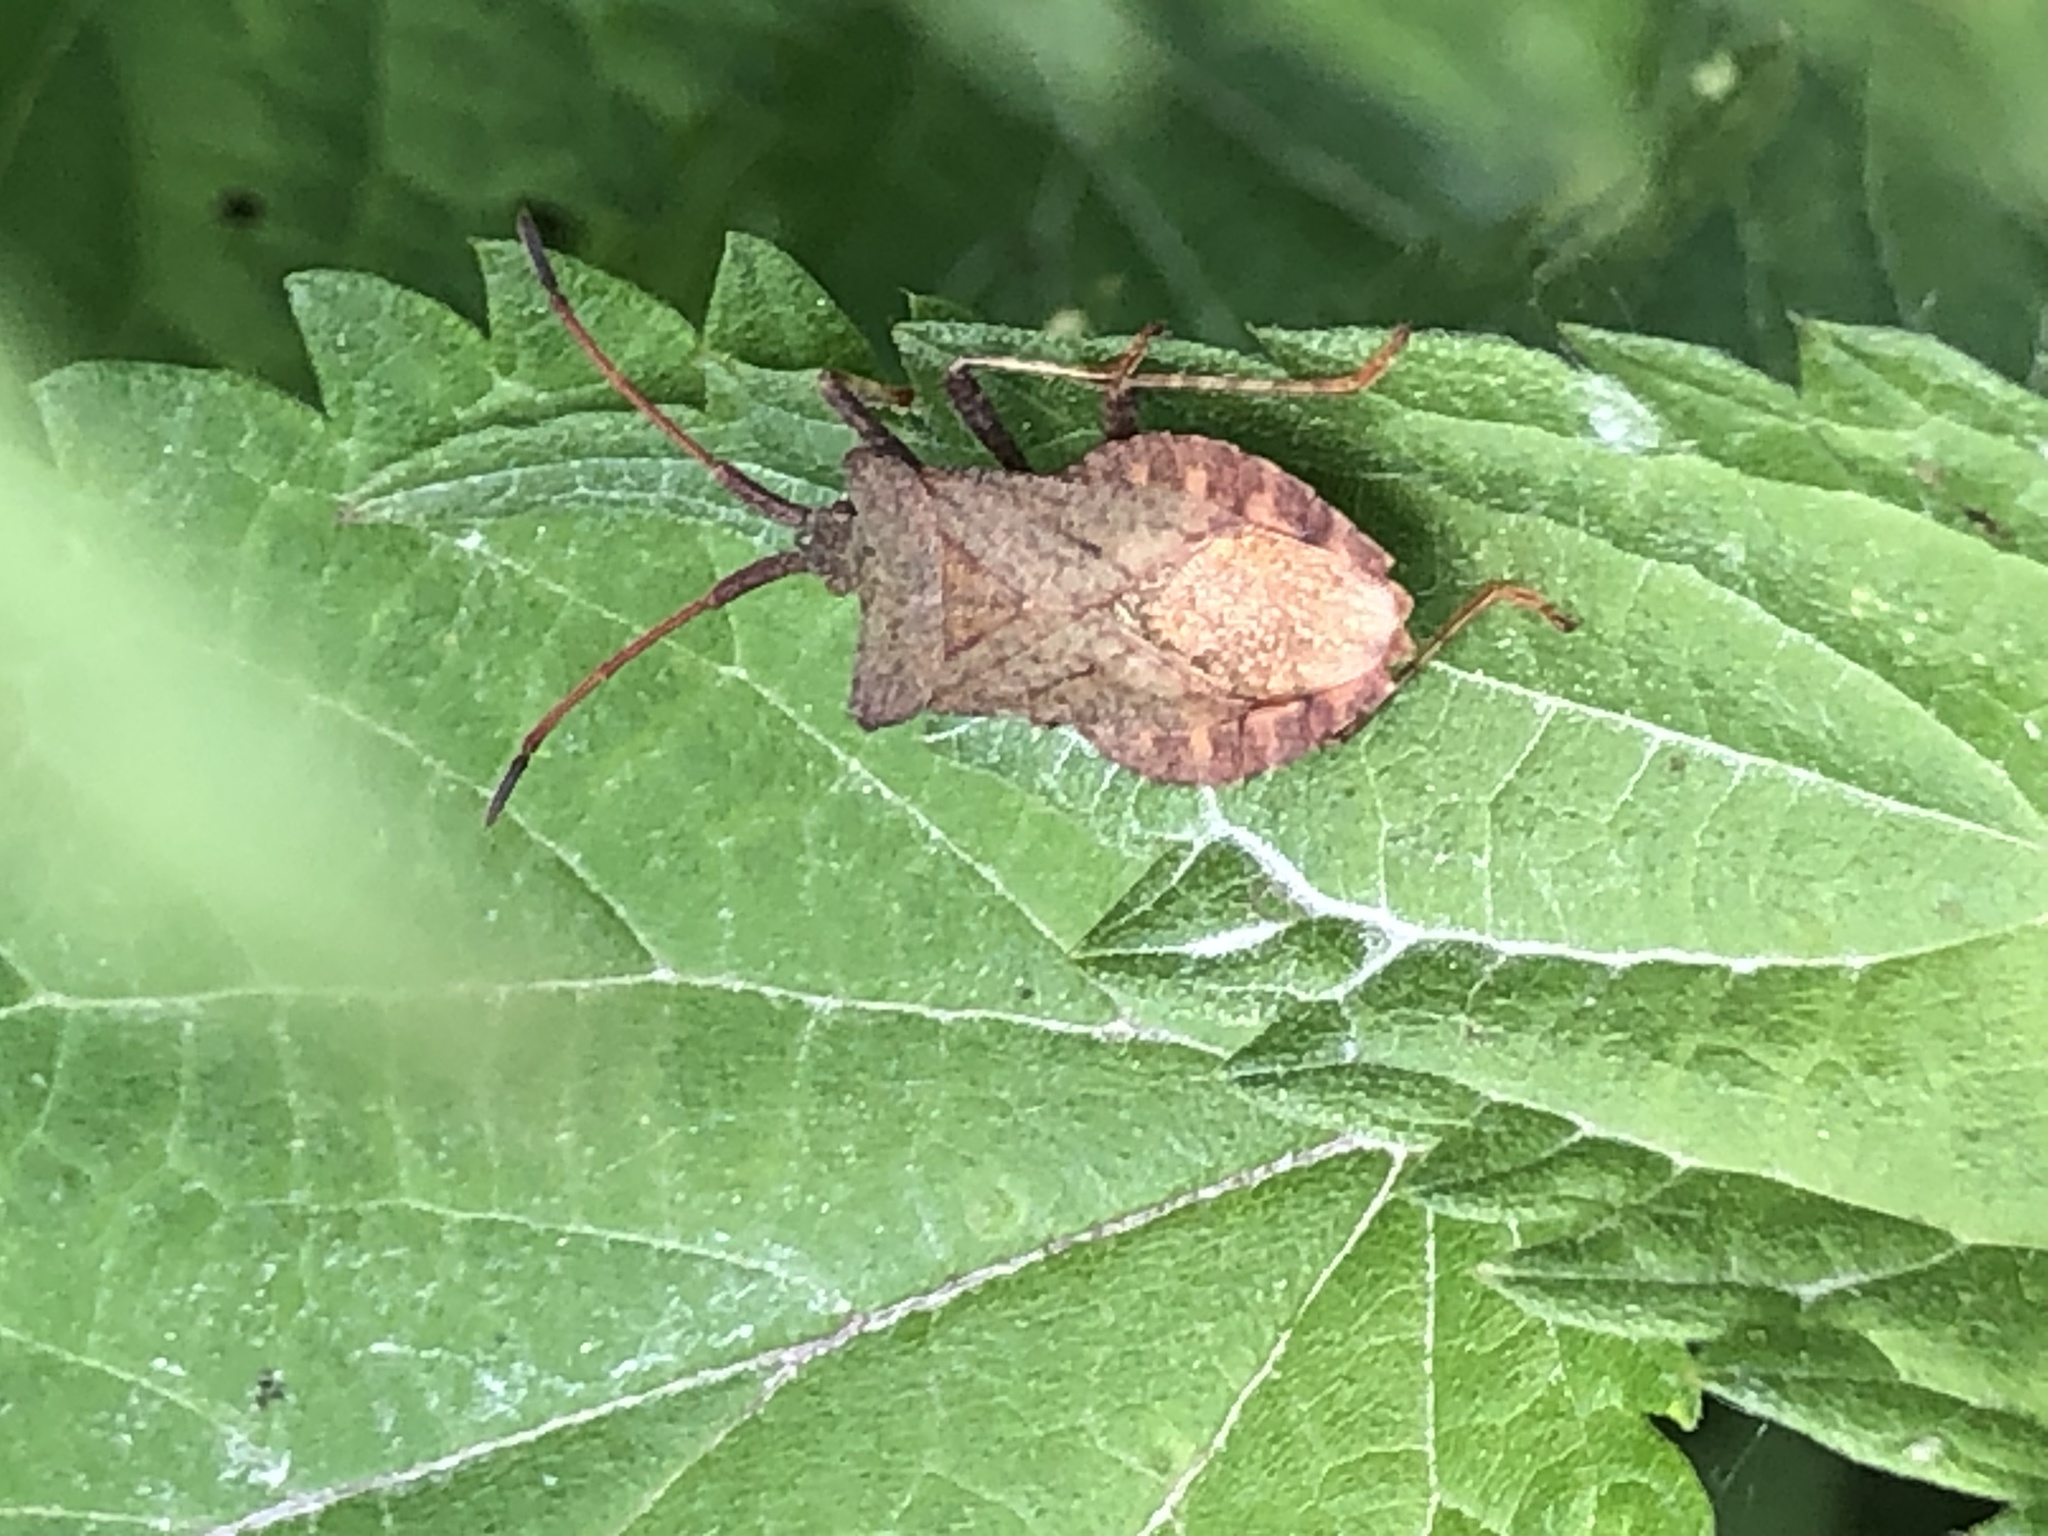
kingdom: Animalia
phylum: Arthropoda
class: Insecta
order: Hemiptera
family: Coreidae
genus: Coreus
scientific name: Coreus marginatus
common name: Dock bug
